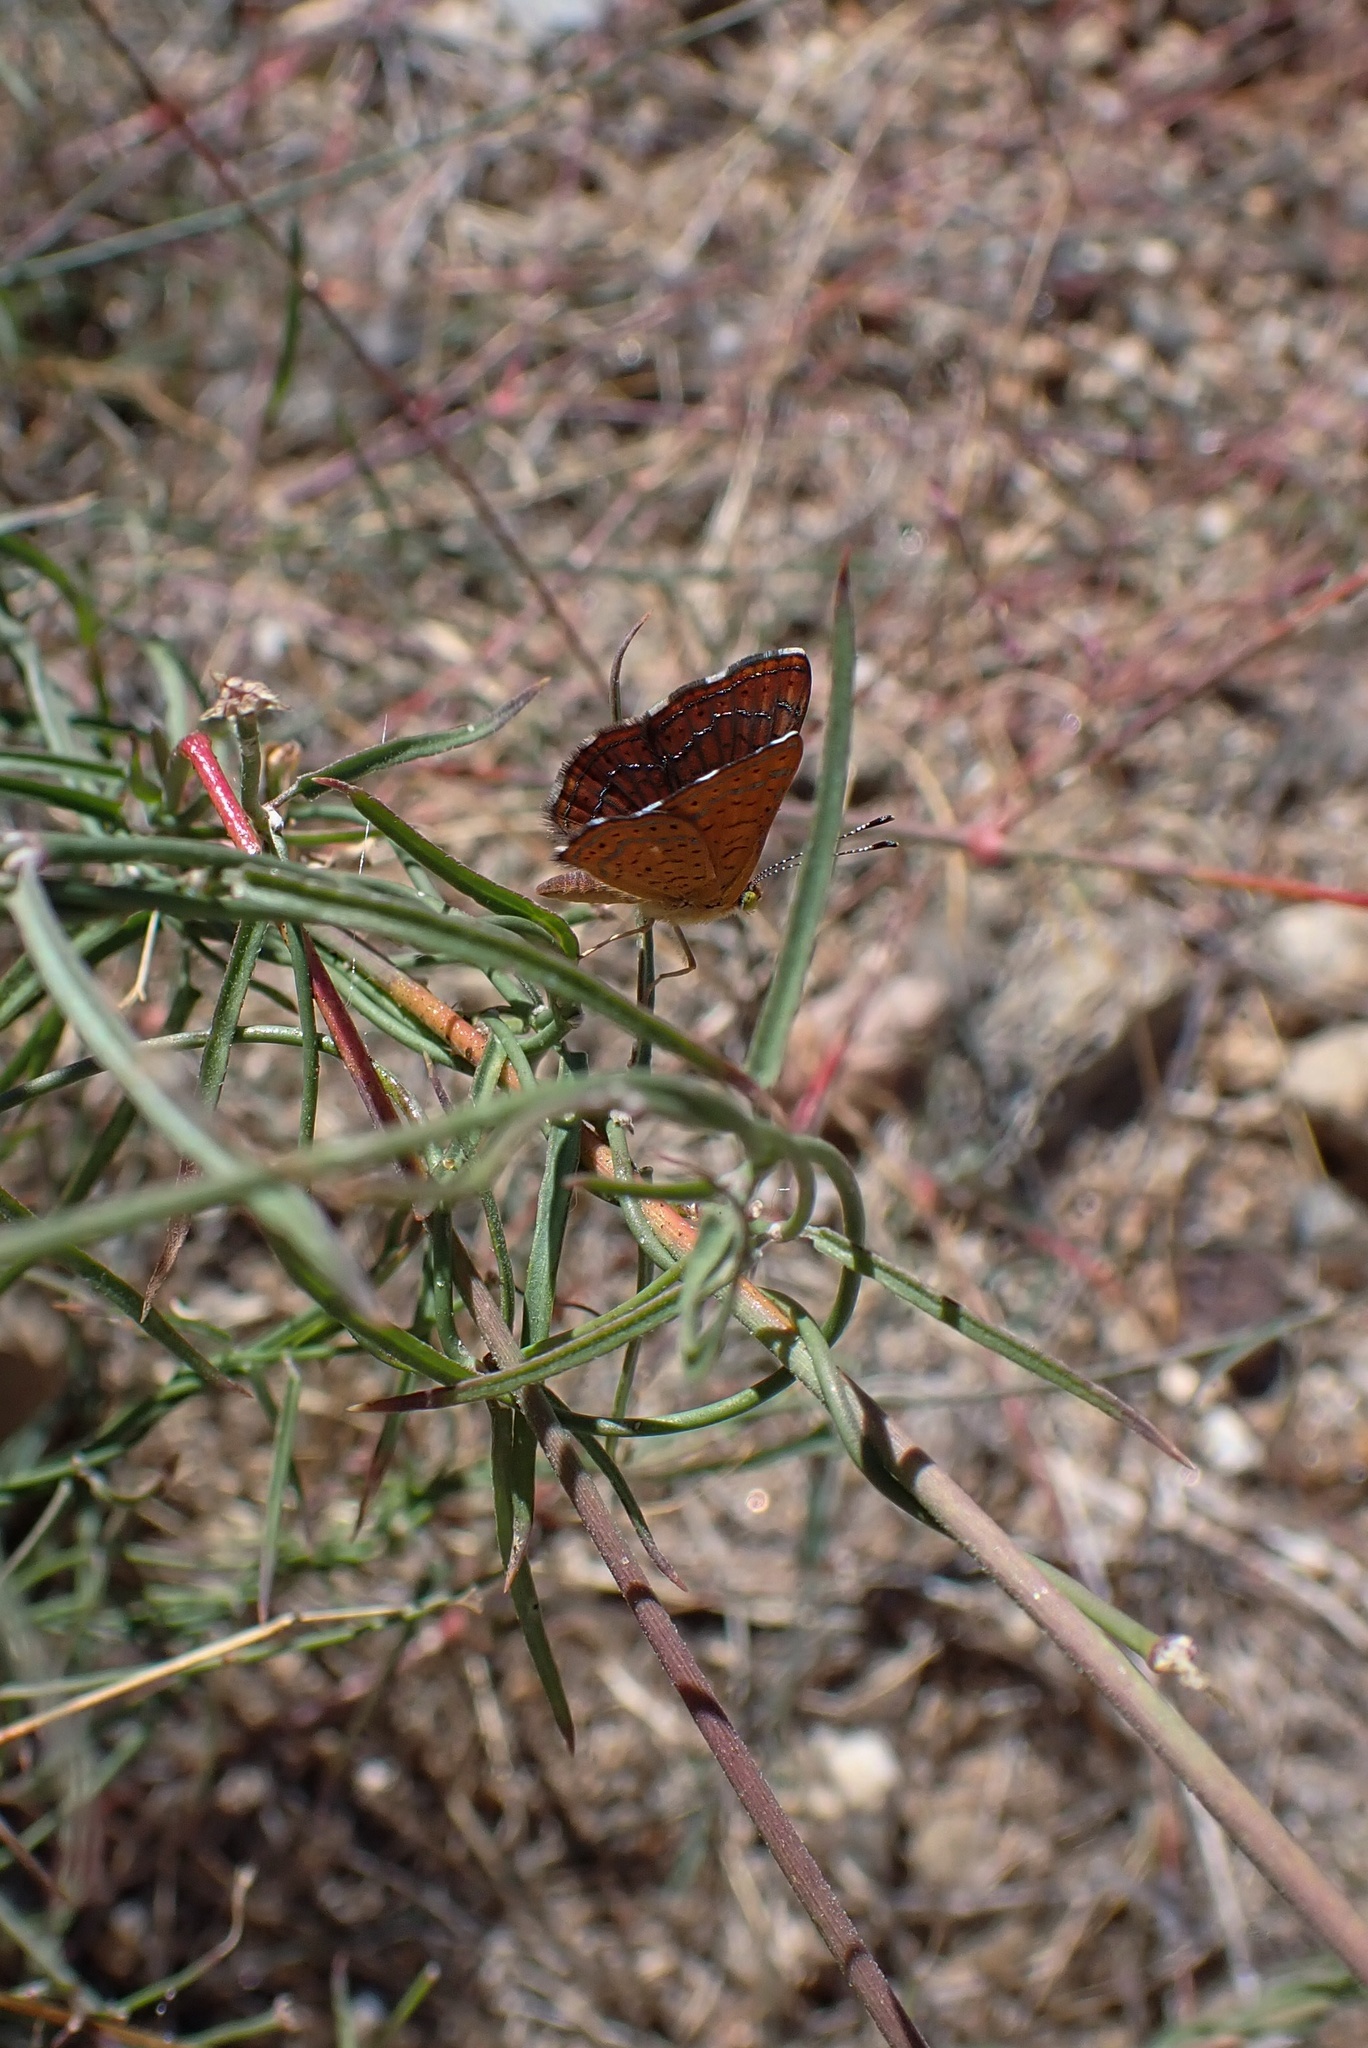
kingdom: Animalia
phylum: Arthropoda
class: Insecta
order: Lepidoptera
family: Lycaenidae
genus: Emesis
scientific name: Emesis wrighti
